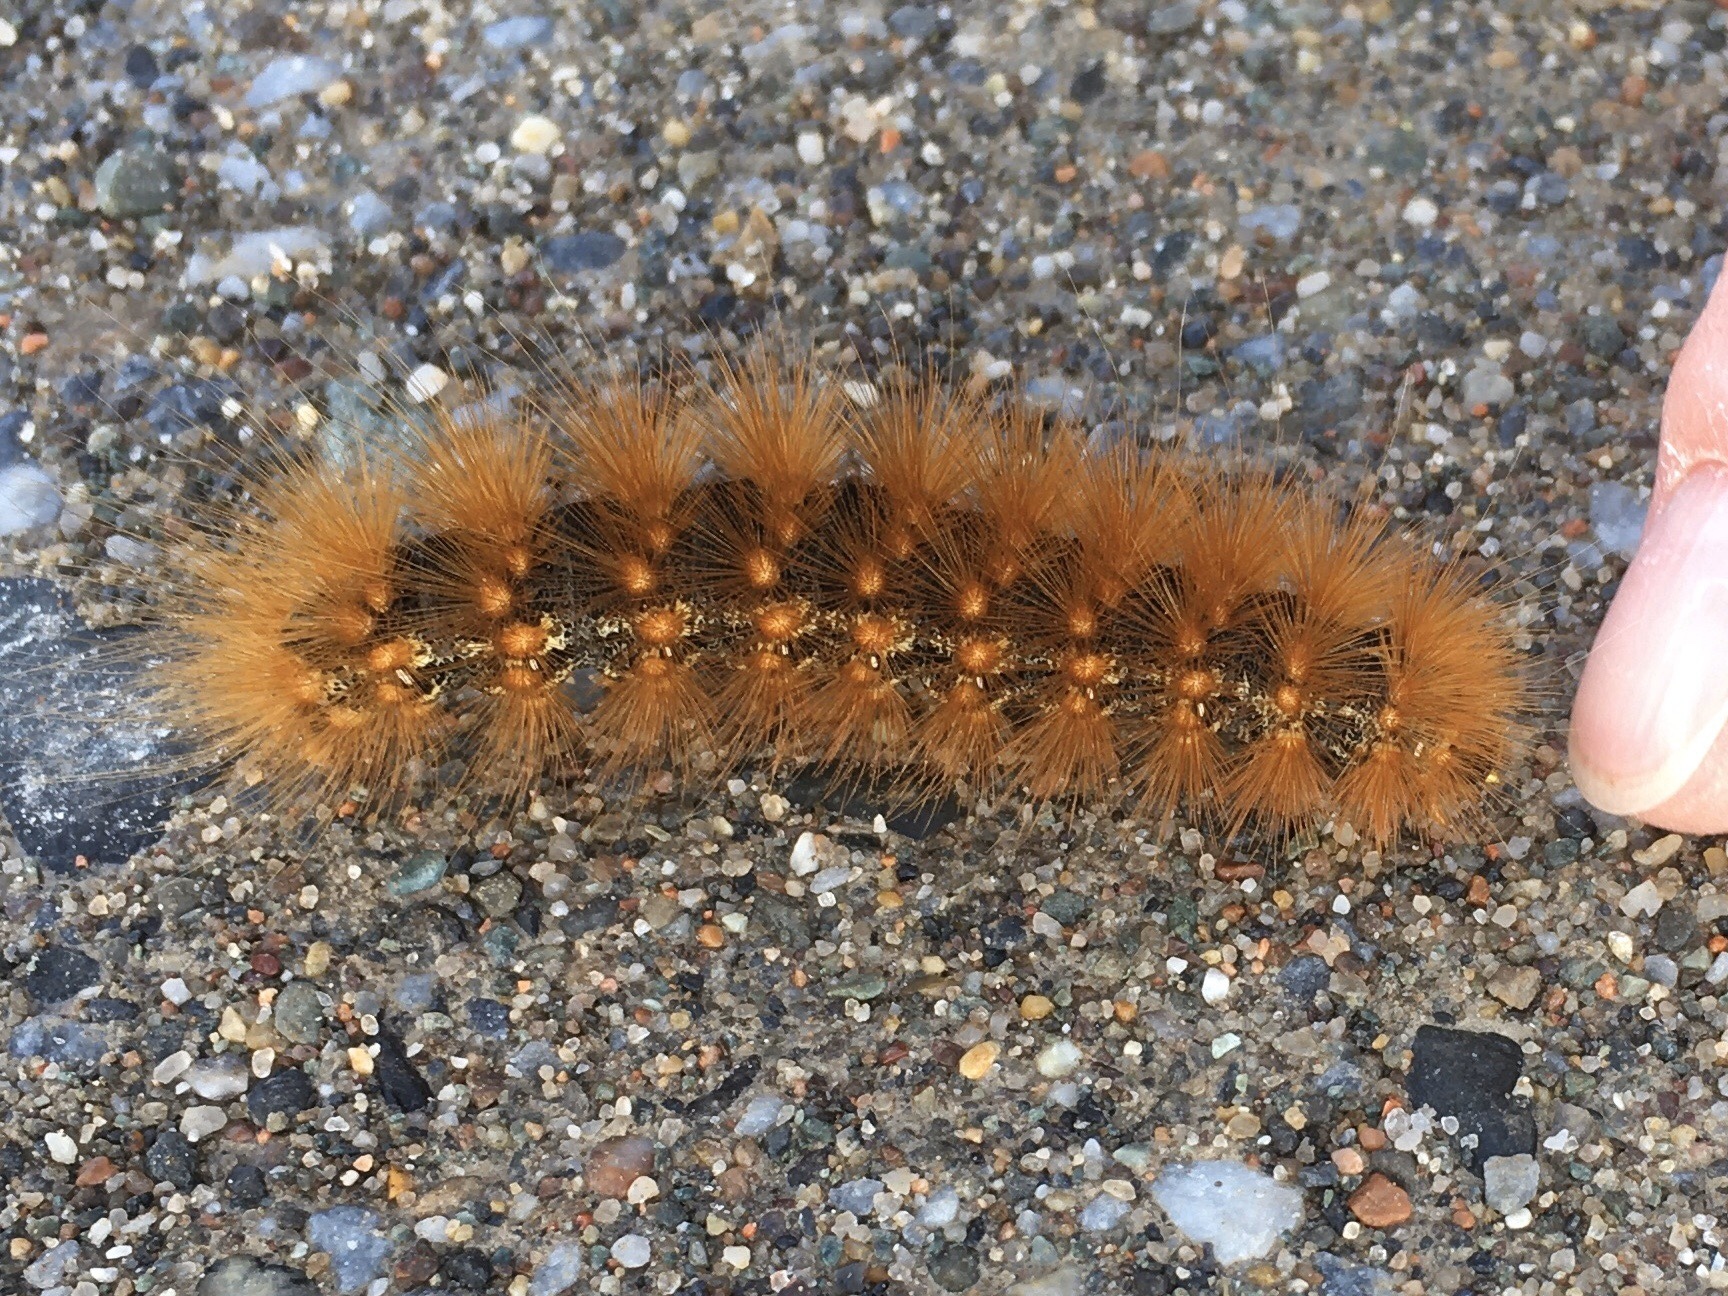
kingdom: Animalia
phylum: Arthropoda
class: Insecta
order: Lepidoptera
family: Erebidae
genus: Estigmene
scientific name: Estigmene acrea
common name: Salt marsh moth
